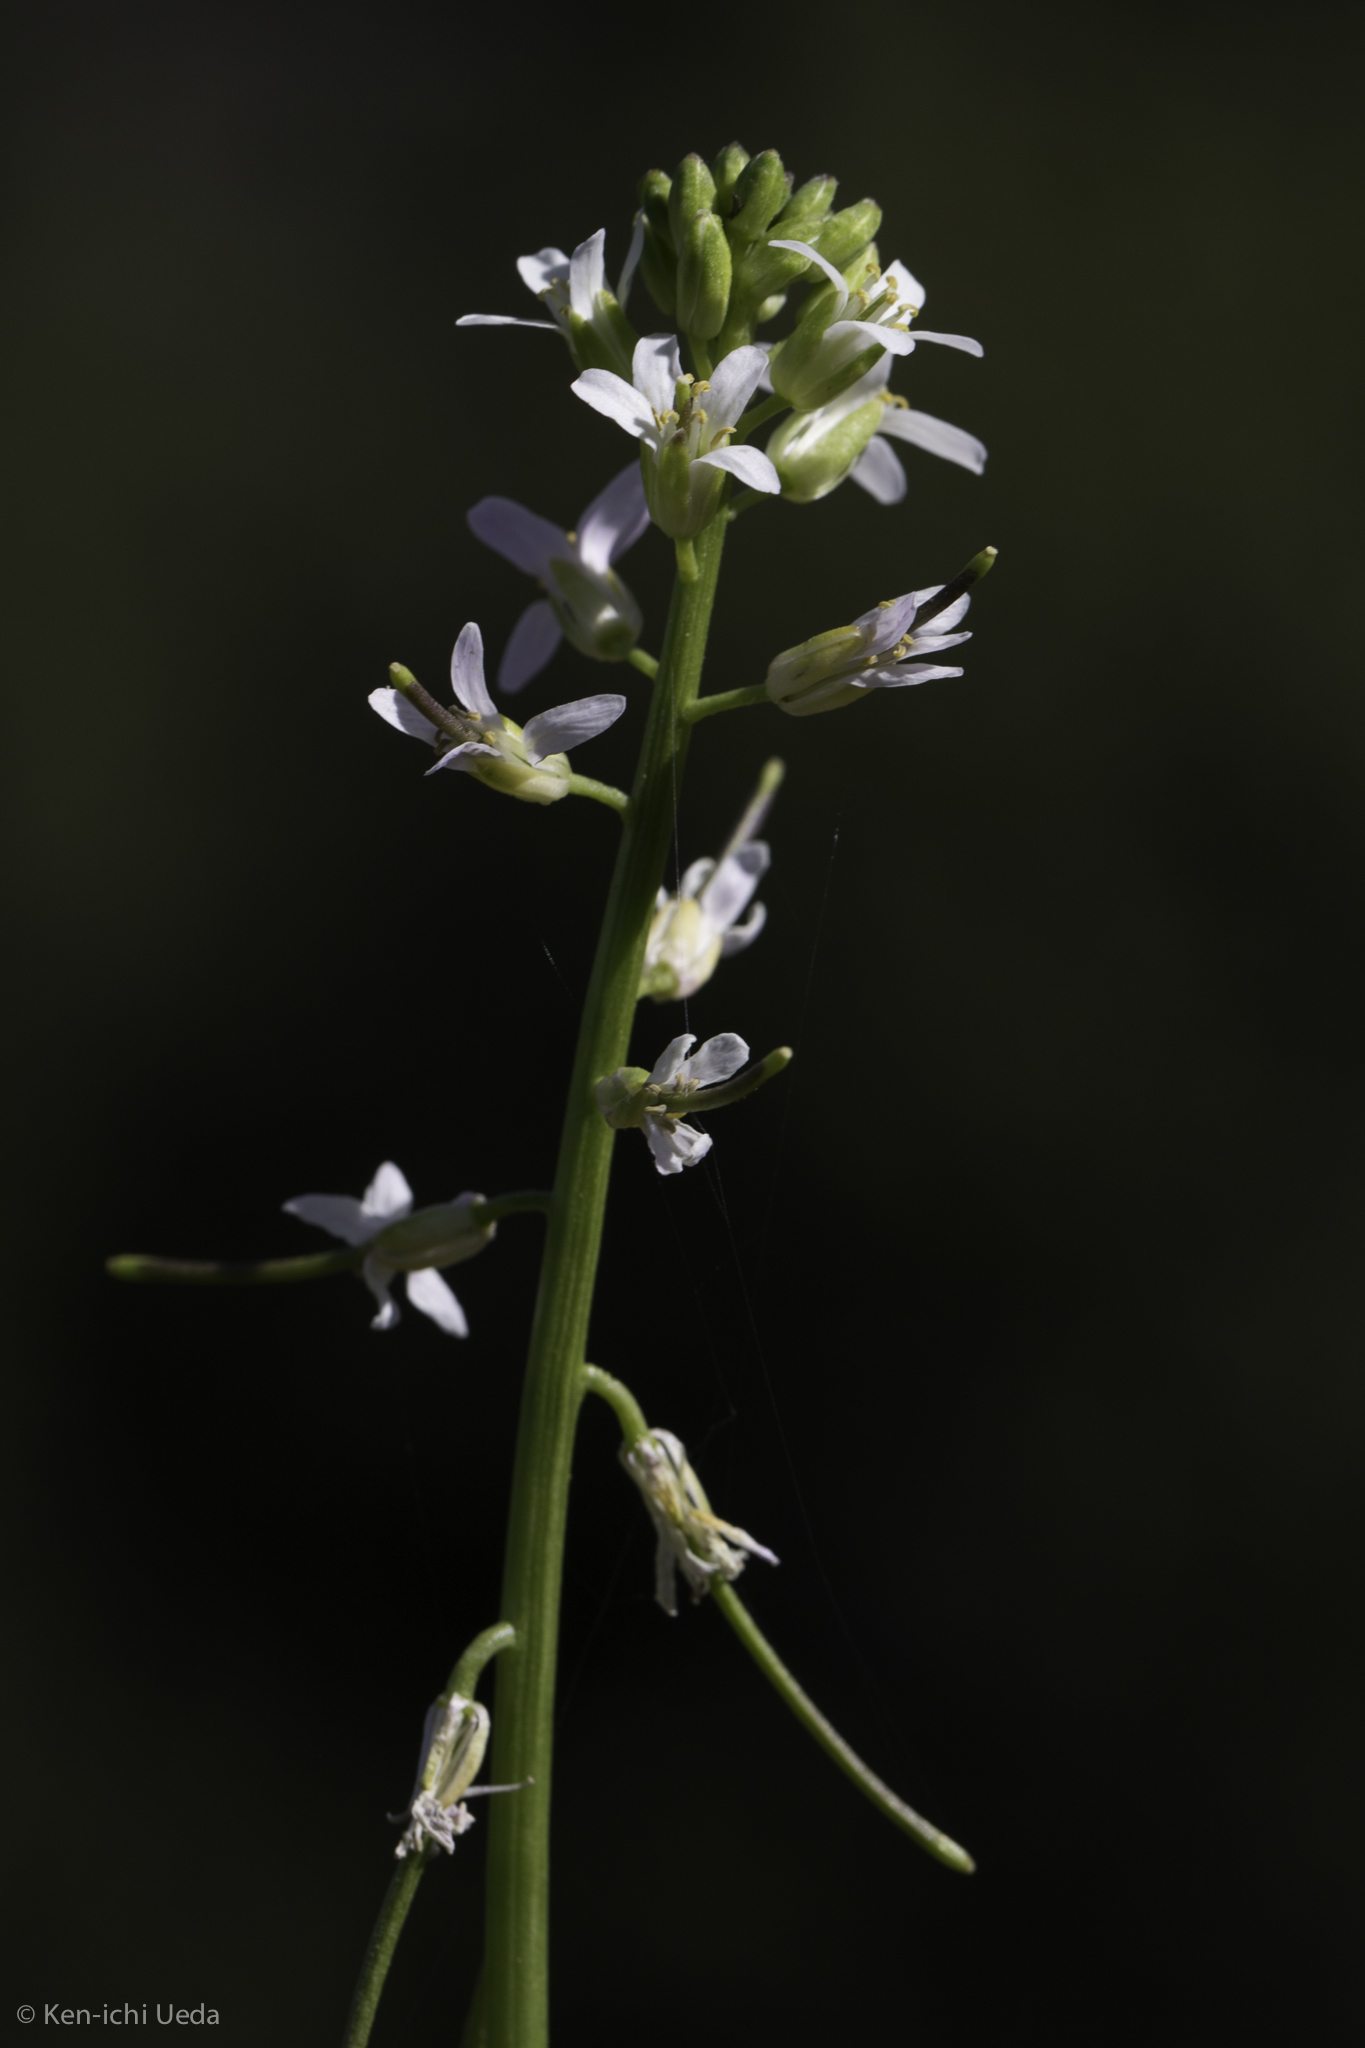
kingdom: Plantae
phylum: Tracheophyta
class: Magnoliopsida
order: Brassicales
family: Brassicaceae
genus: Streptanthus
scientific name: Streptanthus lasiophyllus
